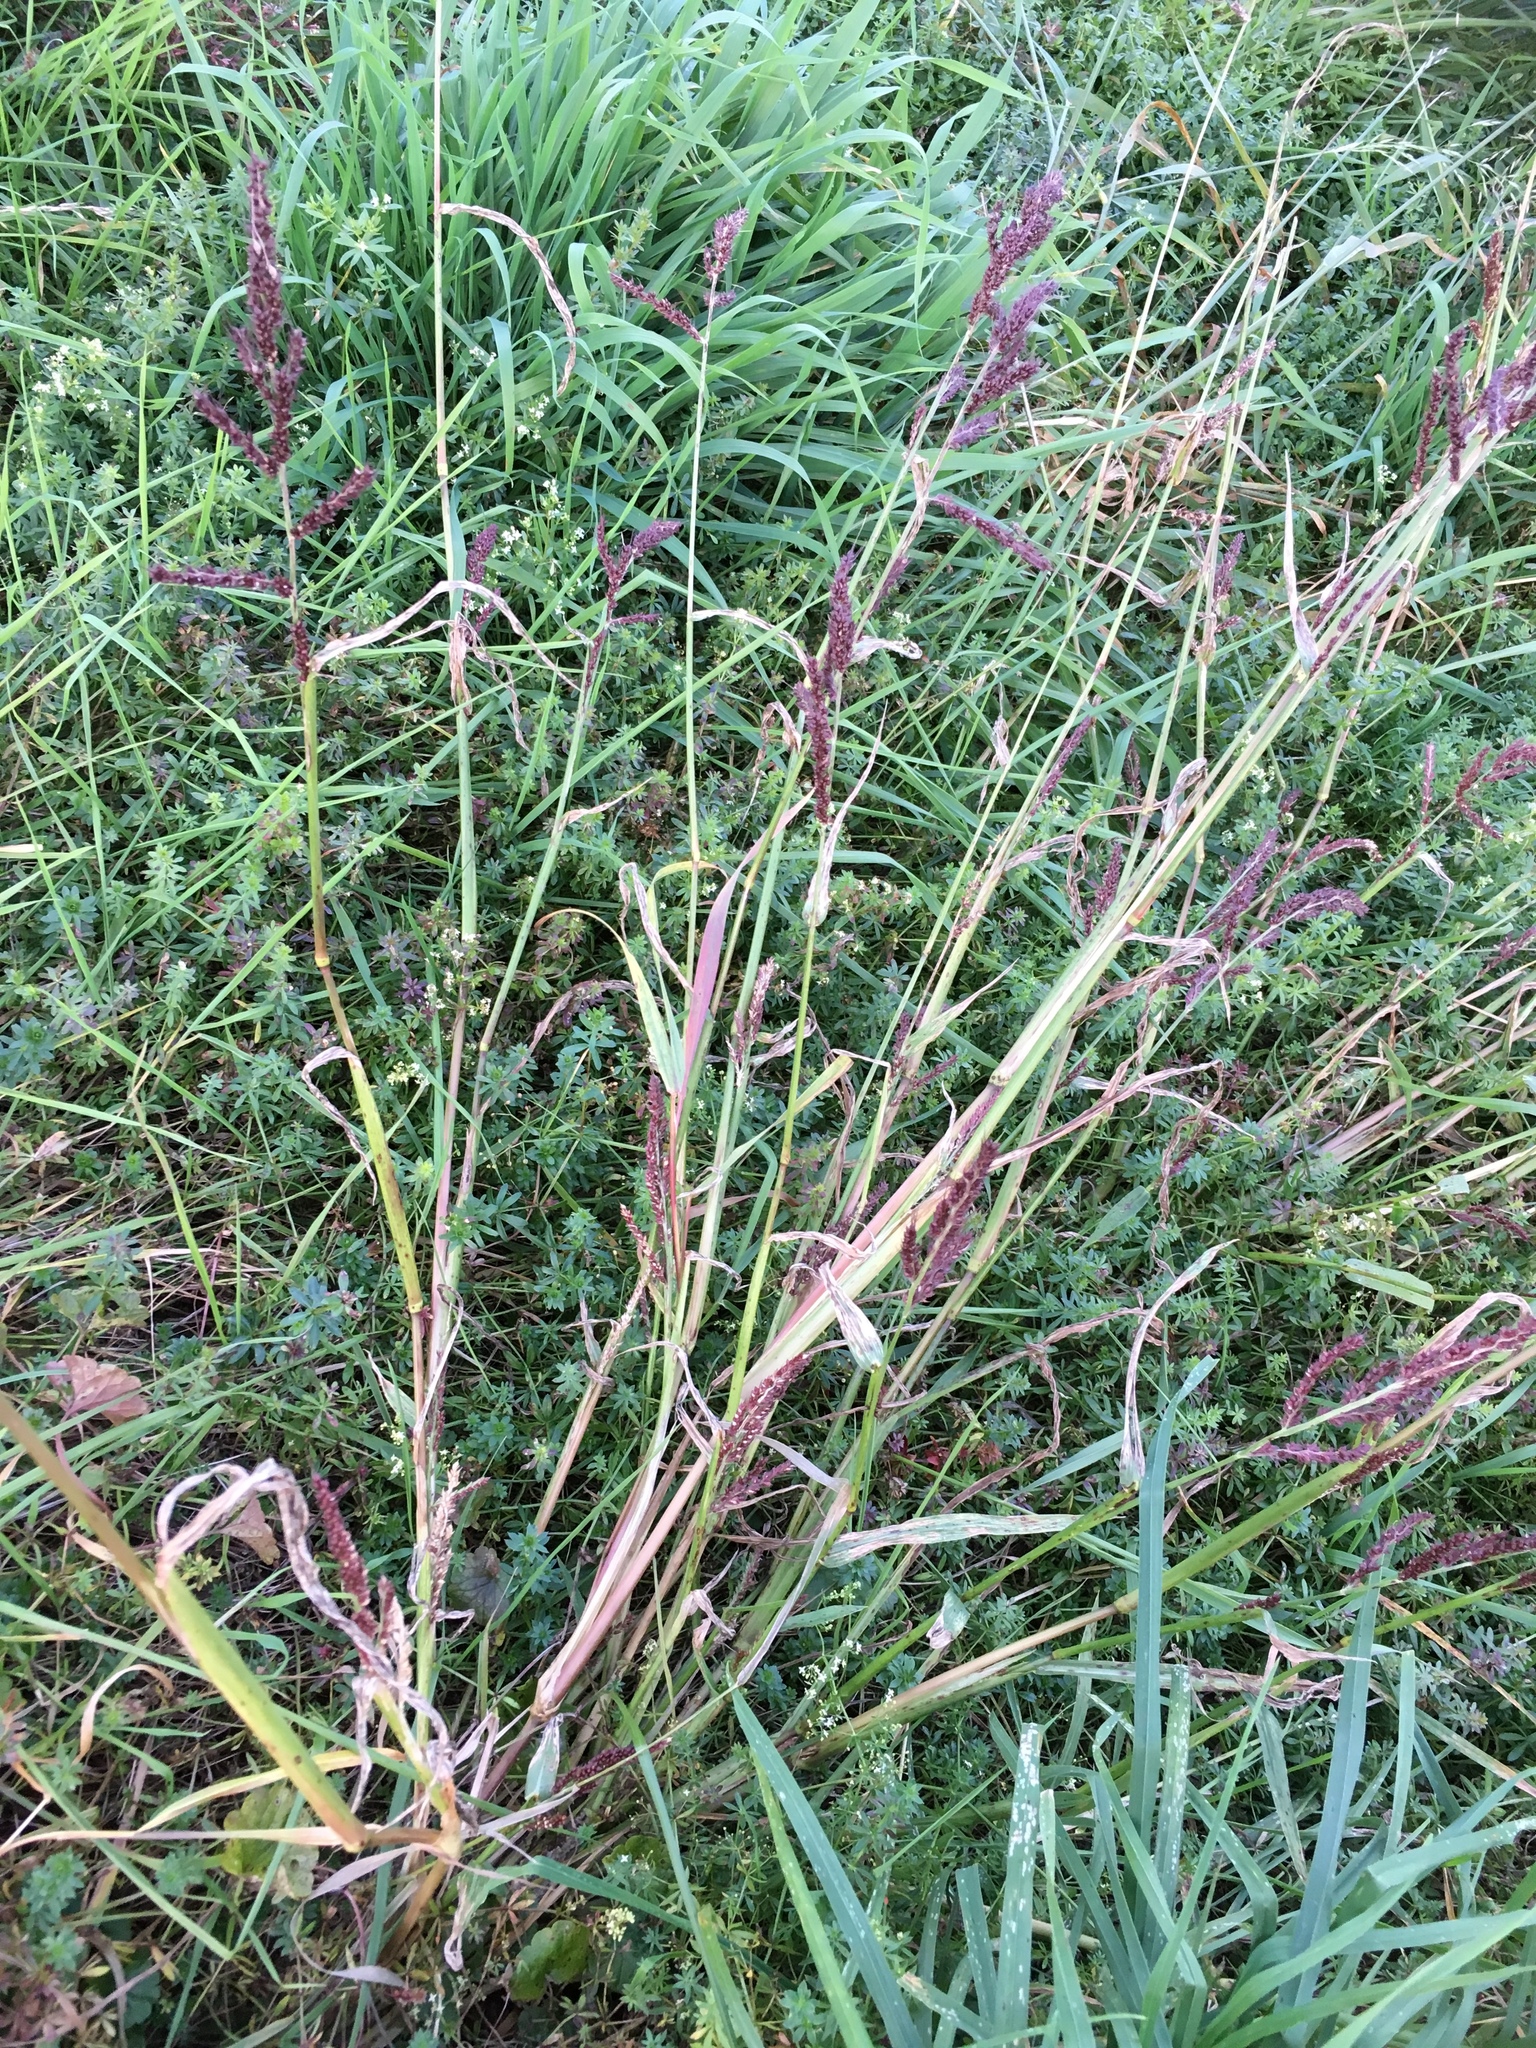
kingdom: Plantae
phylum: Tracheophyta
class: Liliopsida
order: Poales
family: Poaceae
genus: Echinochloa
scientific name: Echinochloa crus-galli
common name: Cockspur
